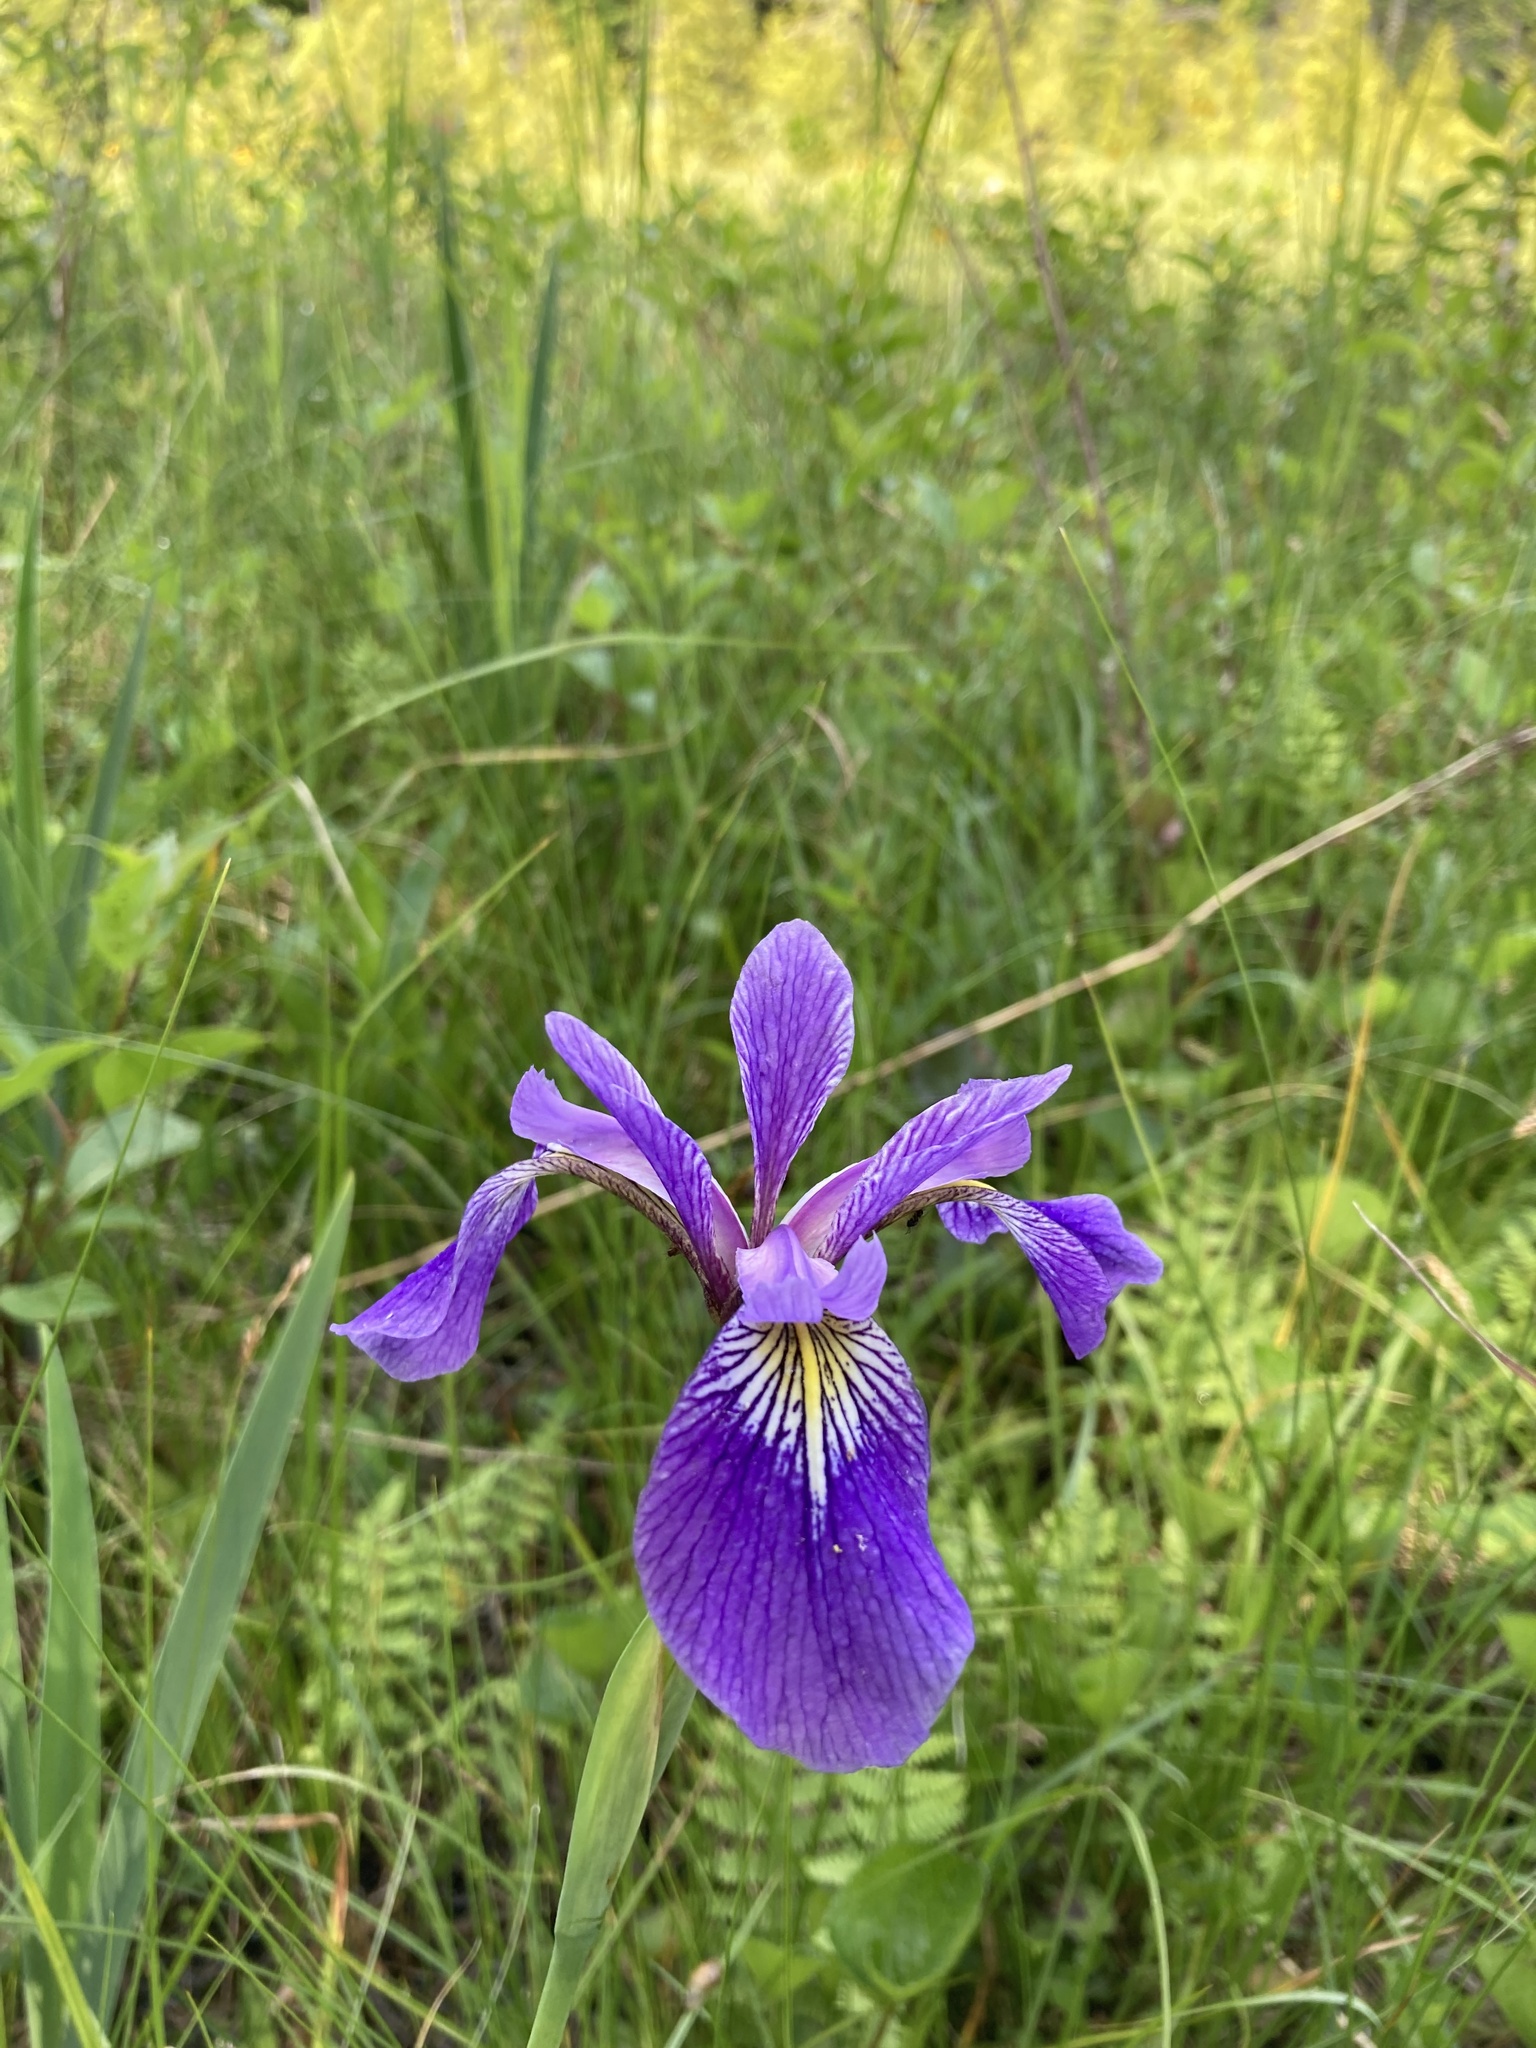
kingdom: Plantae
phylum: Tracheophyta
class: Liliopsida
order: Asparagales
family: Iridaceae
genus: Iris
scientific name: Iris versicolor
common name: Purple iris
